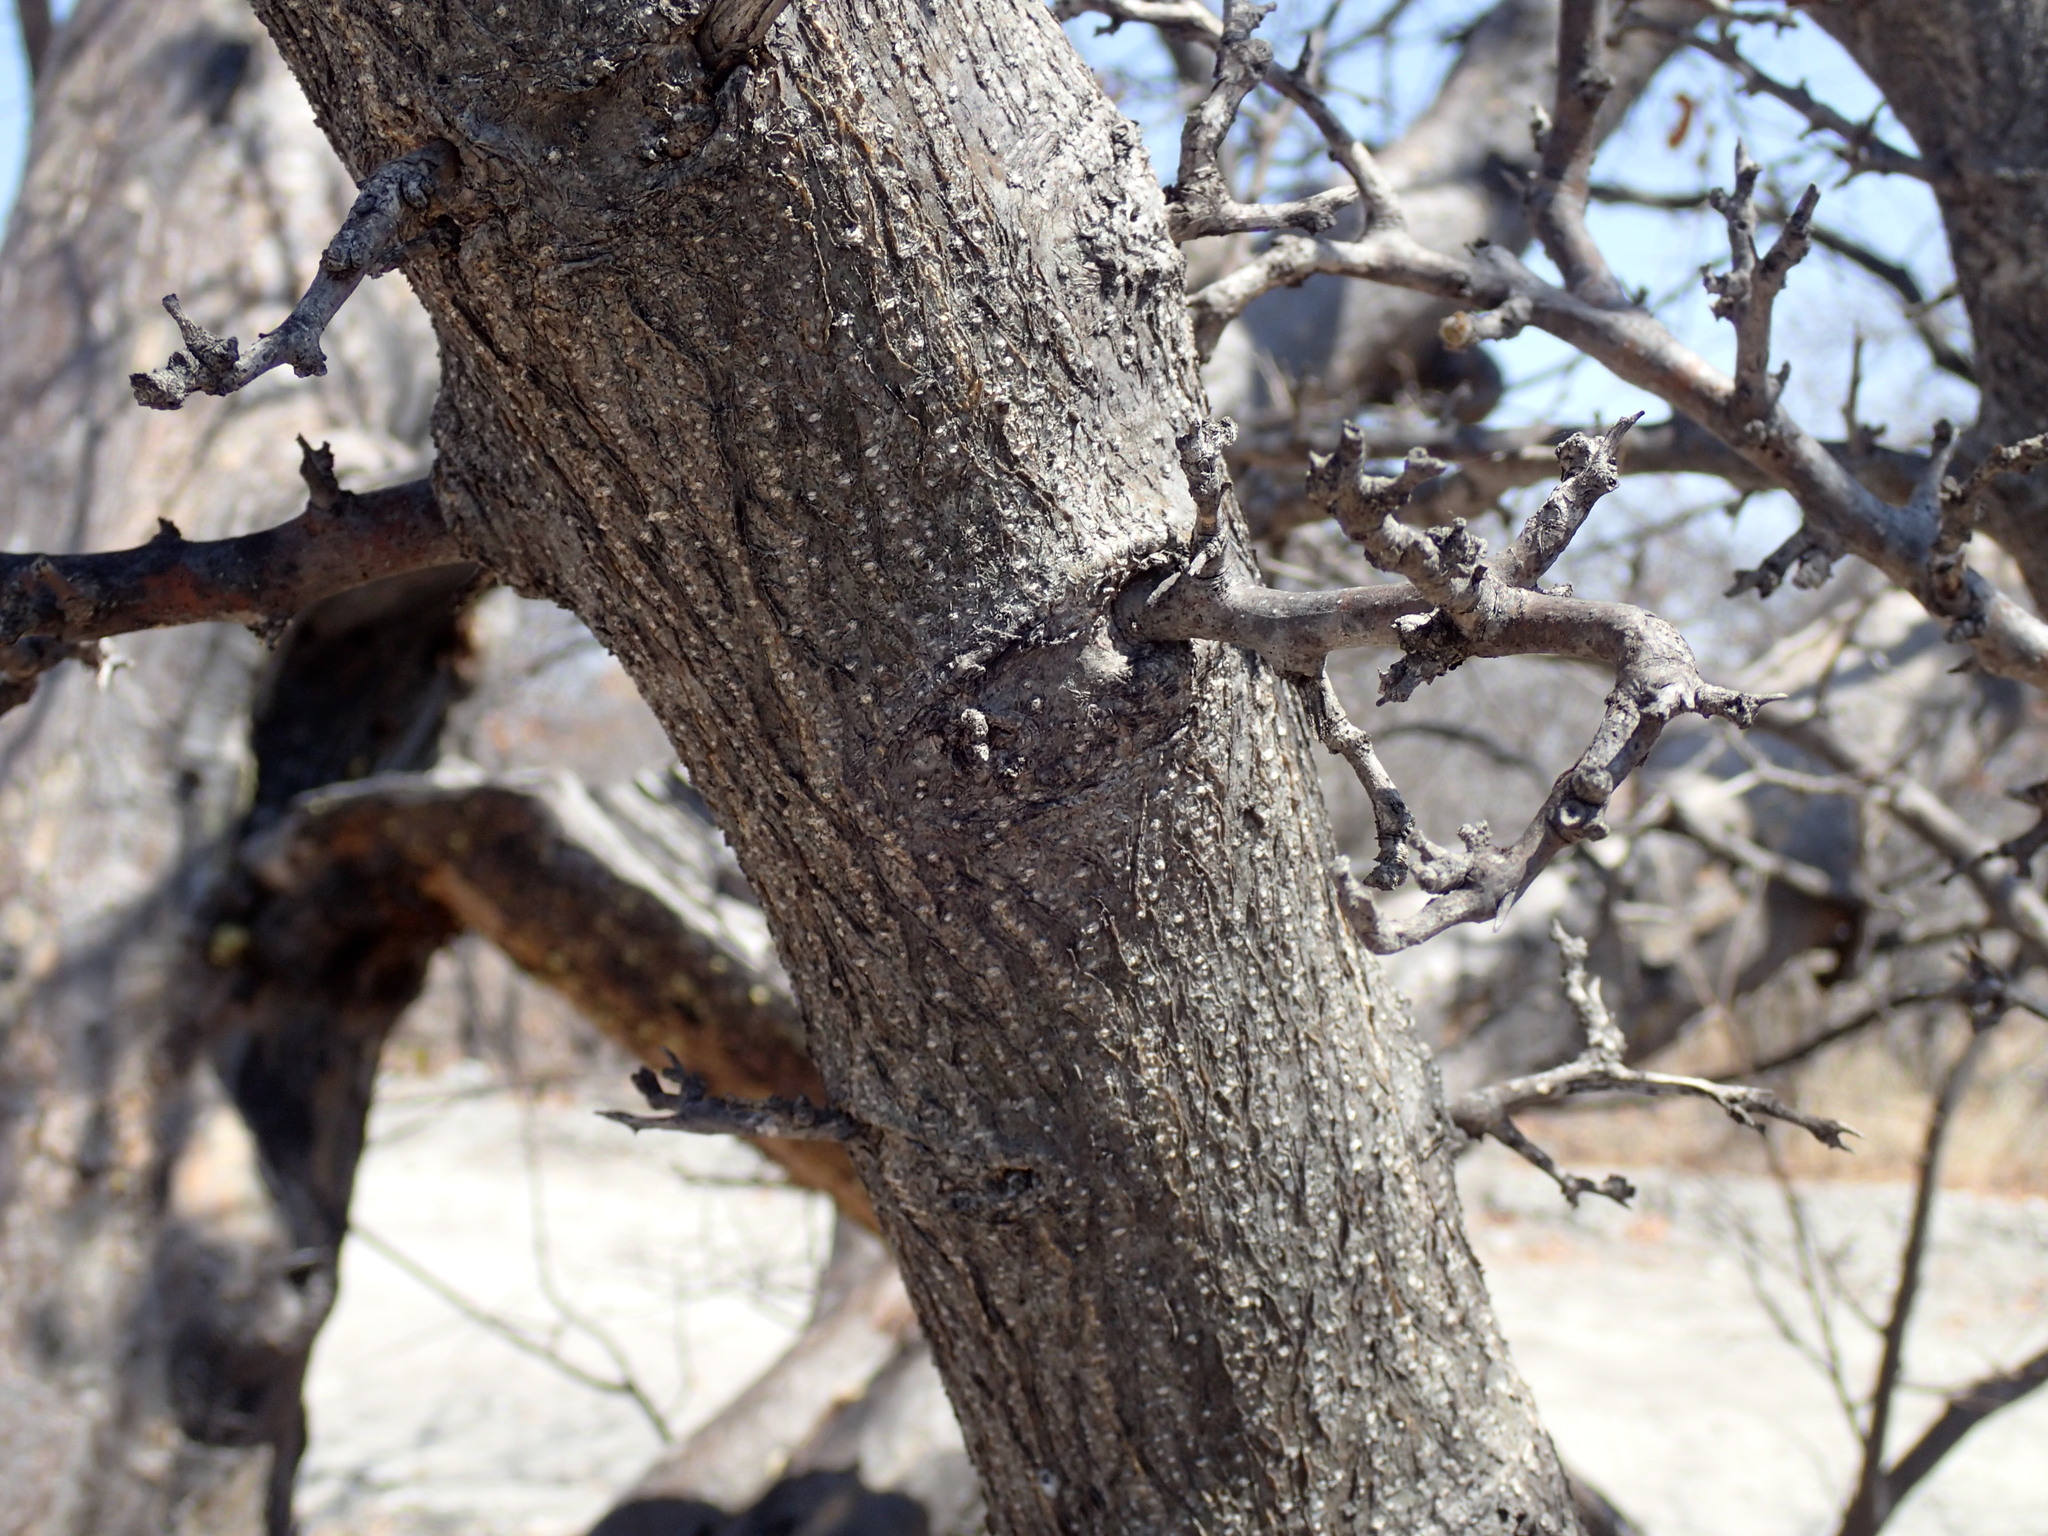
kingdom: Plantae
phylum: Tracheophyta
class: Magnoliopsida
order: Fabales
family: Fabaceae
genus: Albizia
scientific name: Albizia anthelmintica
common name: Worm-bark false-thorn
